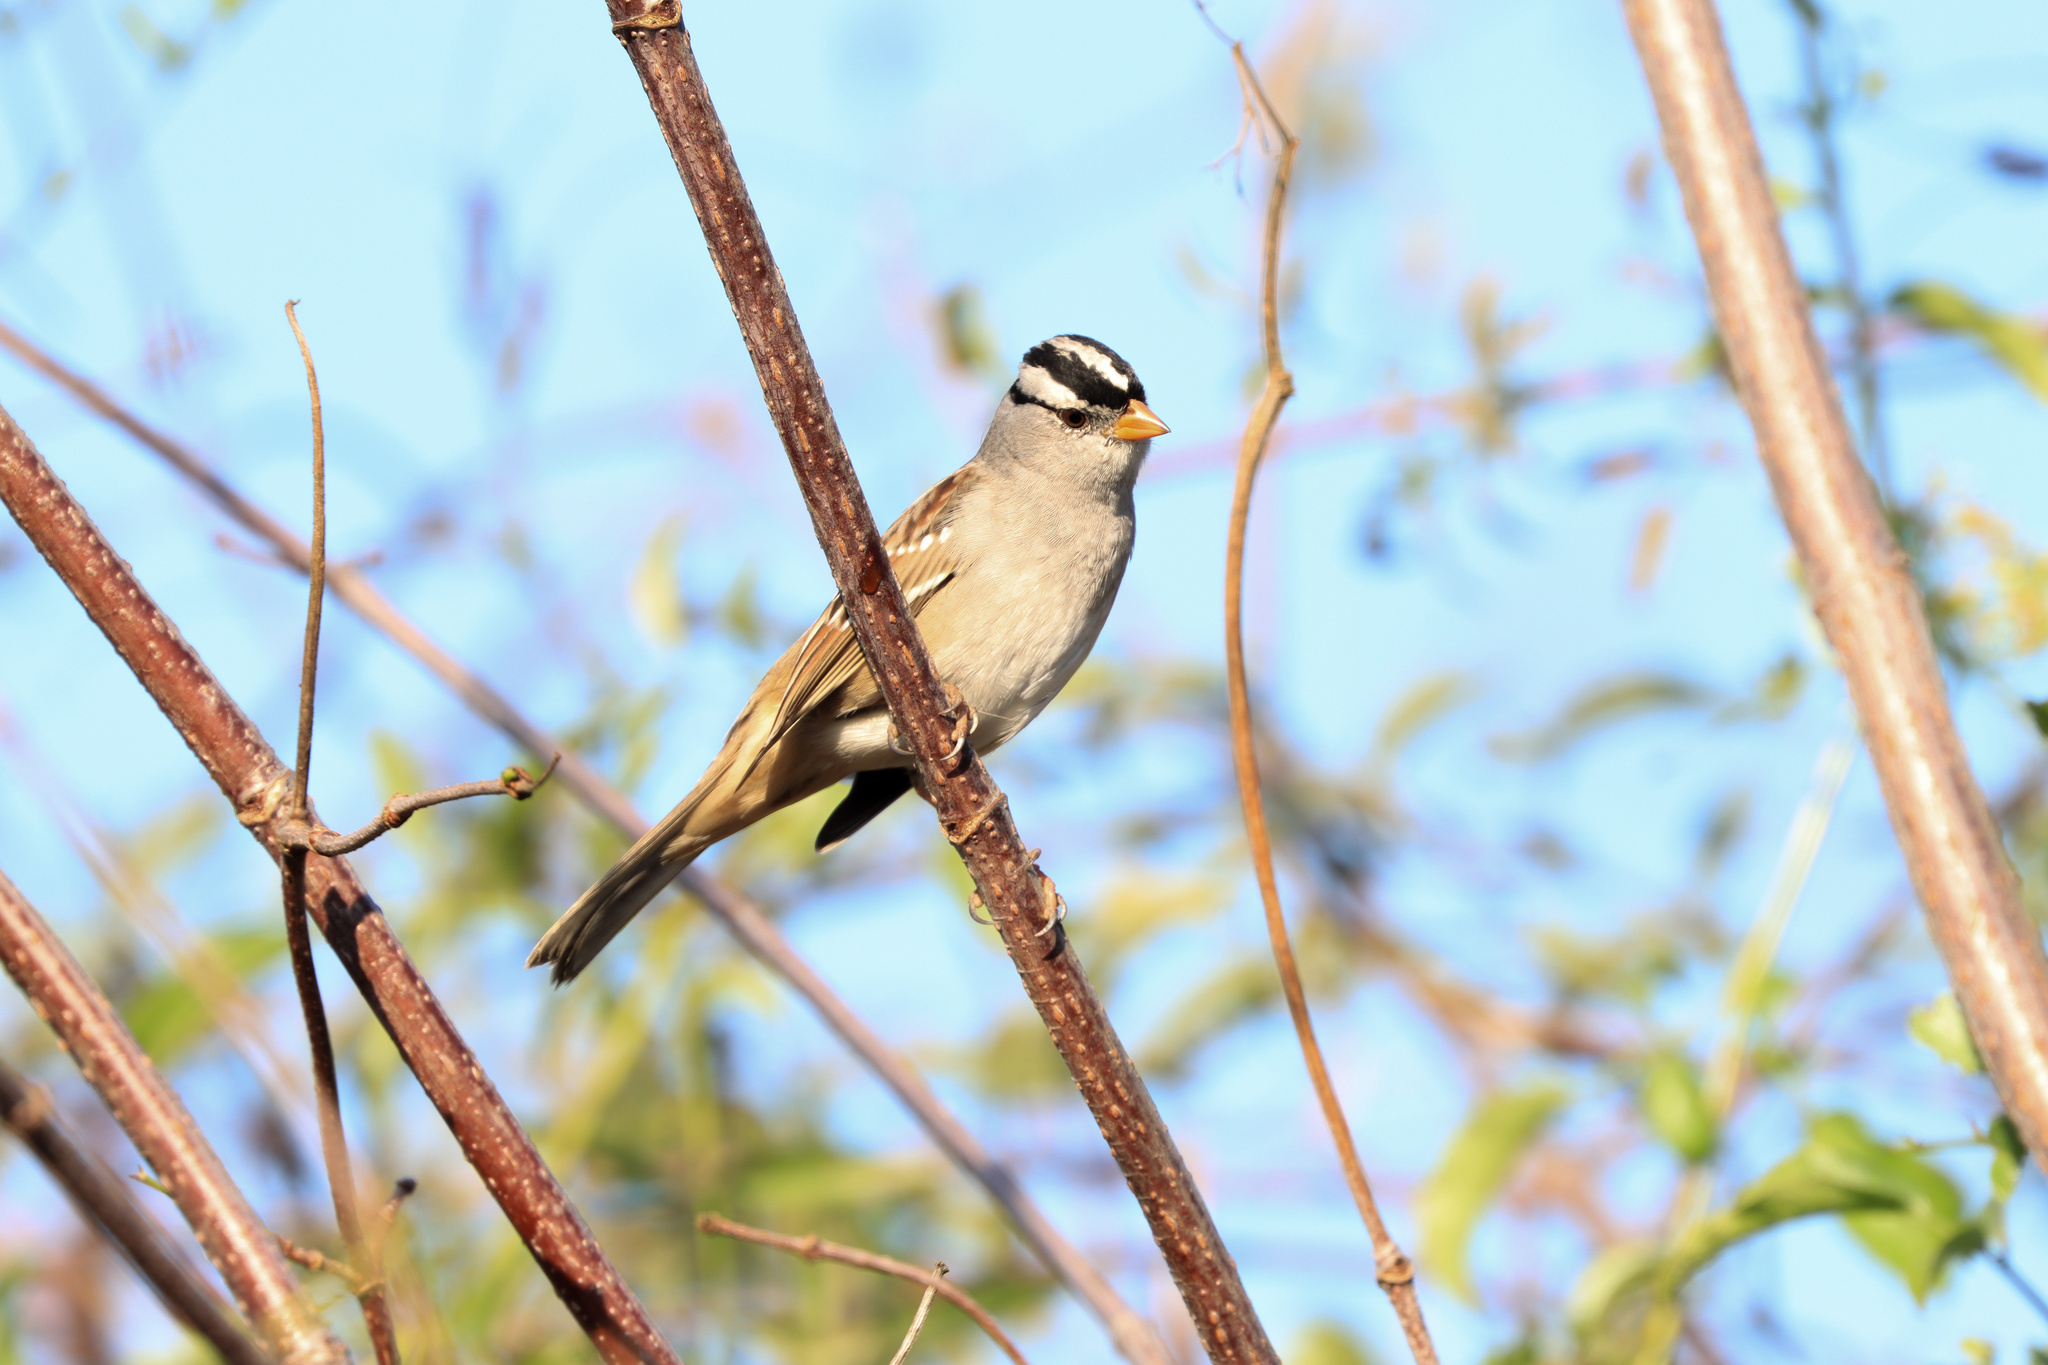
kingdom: Animalia
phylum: Chordata
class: Aves
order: Passeriformes
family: Passerellidae
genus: Zonotrichia
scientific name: Zonotrichia leucophrys
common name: White-crowned sparrow
